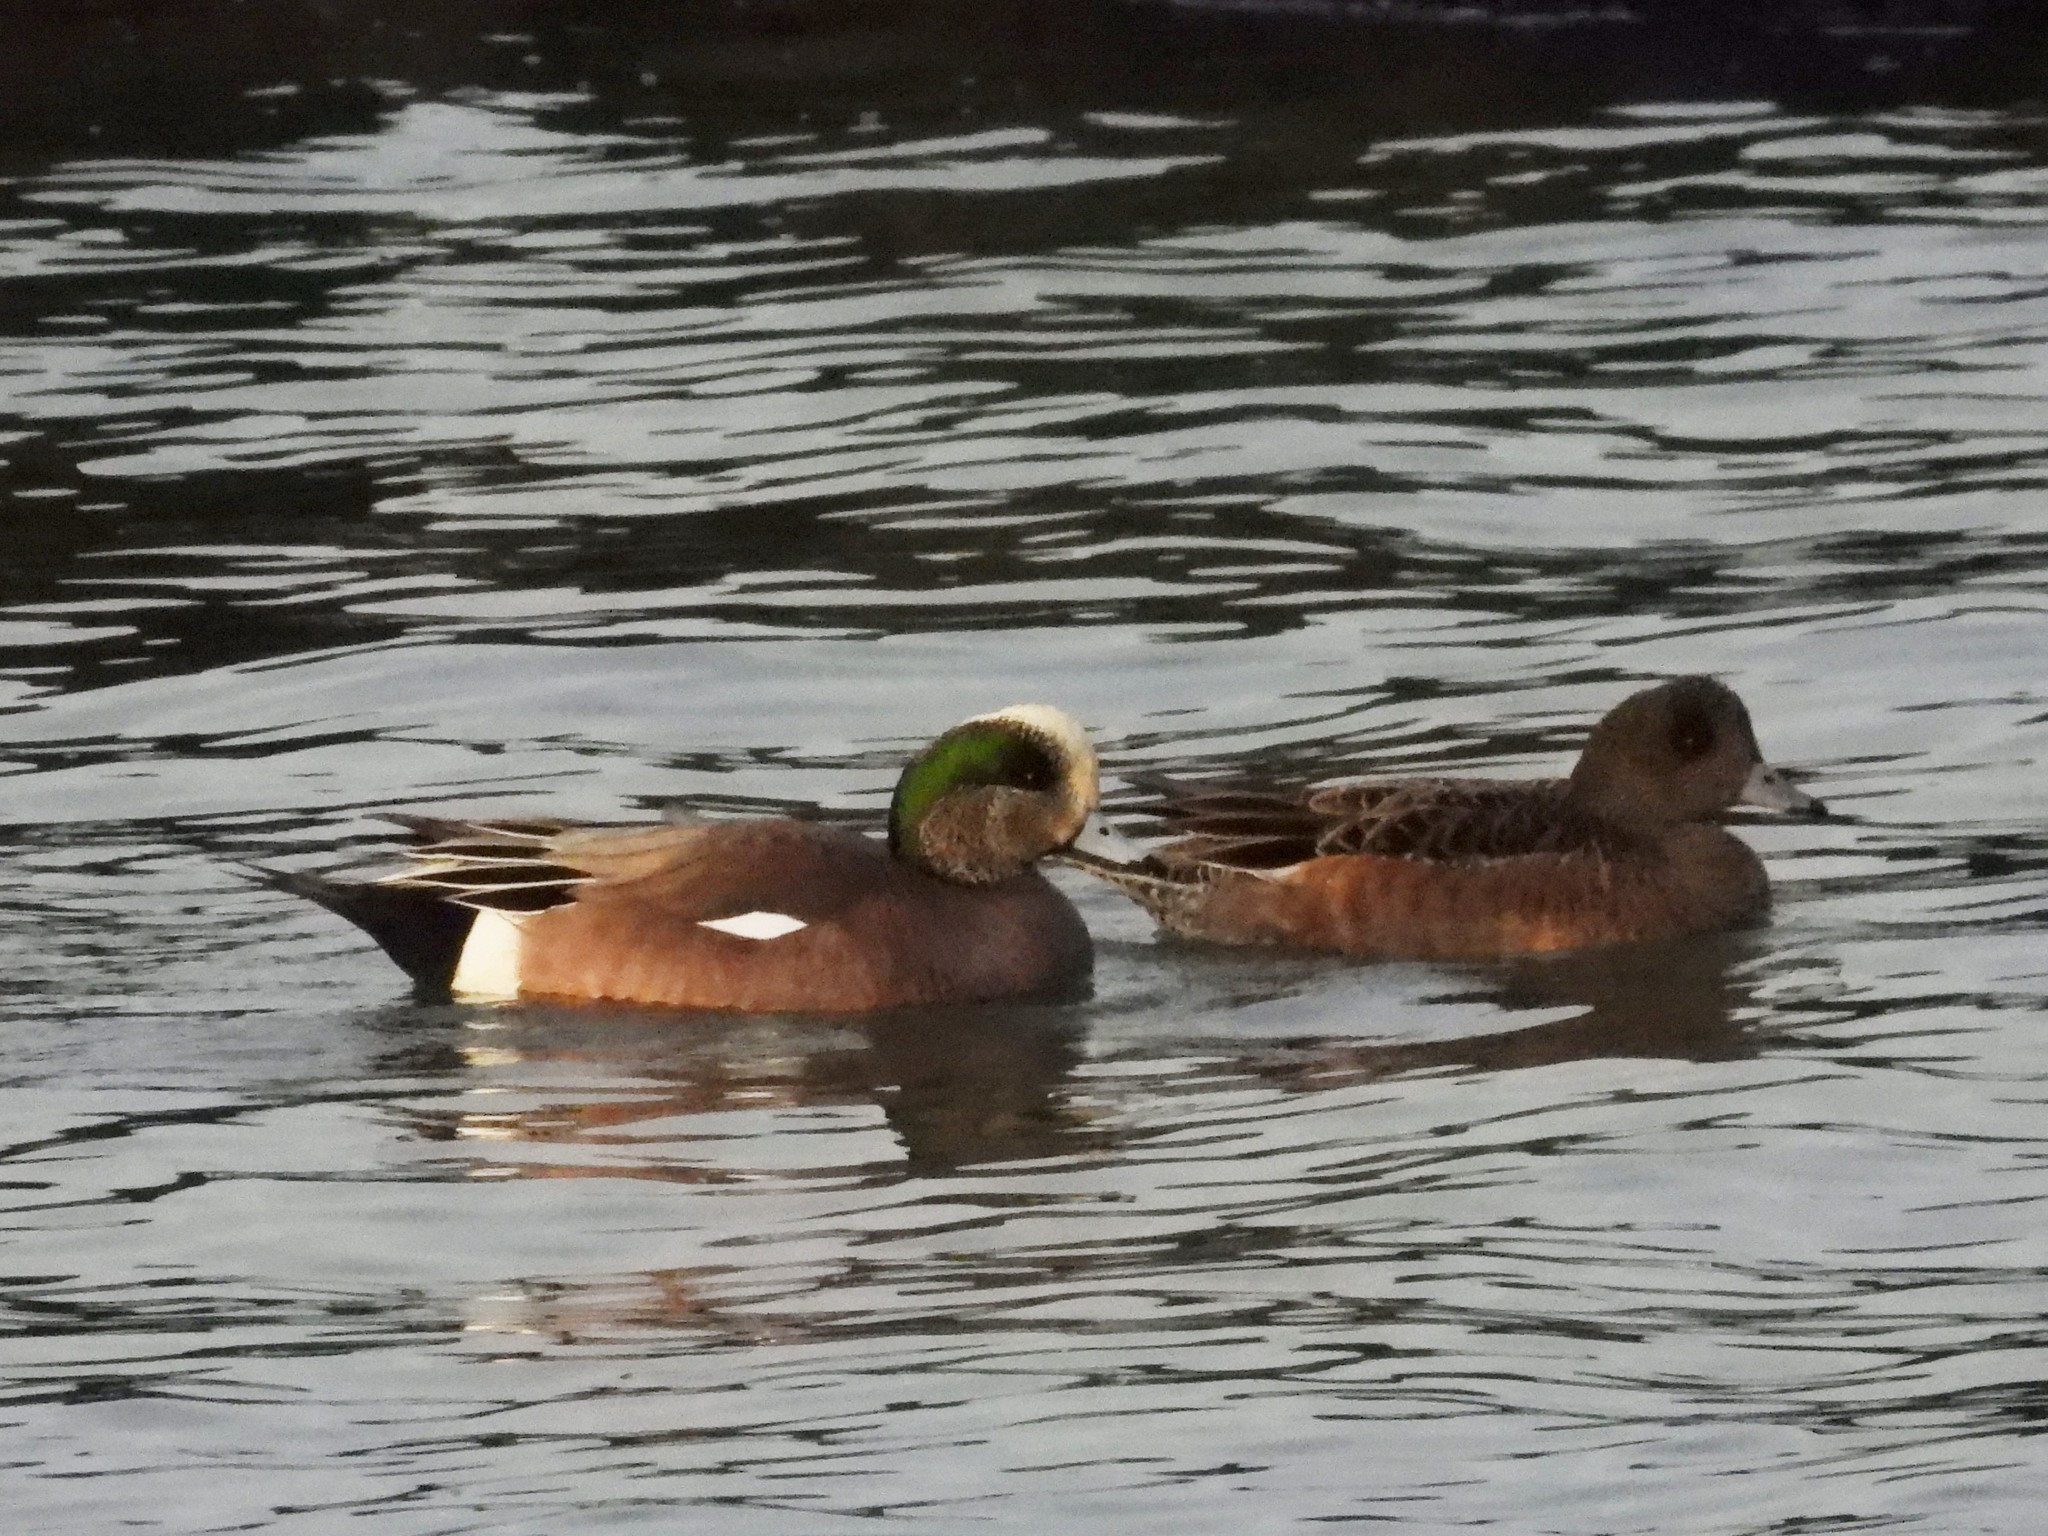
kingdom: Animalia
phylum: Chordata
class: Aves
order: Anseriformes
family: Anatidae
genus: Mareca
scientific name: Mareca americana
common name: American wigeon
